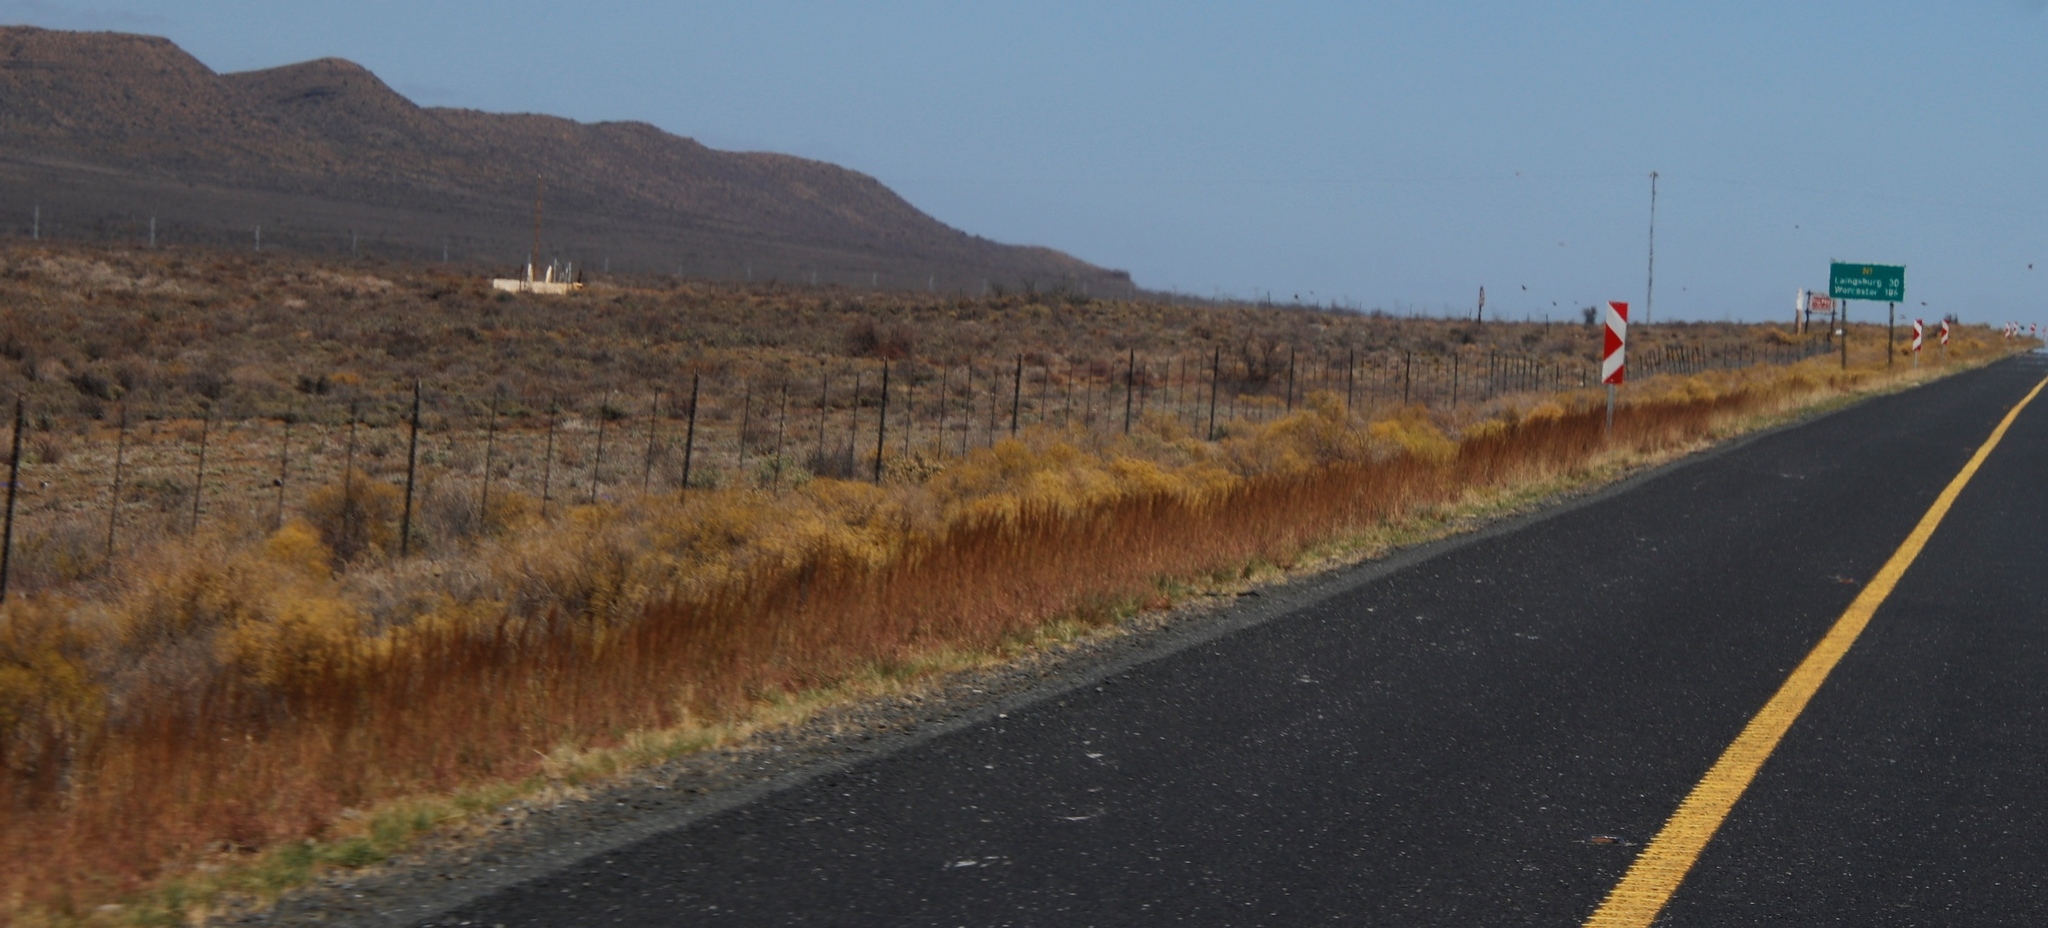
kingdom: Plantae
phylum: Tracheophyta
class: Magnoliopsida
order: Caryophyllales
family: Aizoaceae
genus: Aizoon
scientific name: Aizoon africanum
